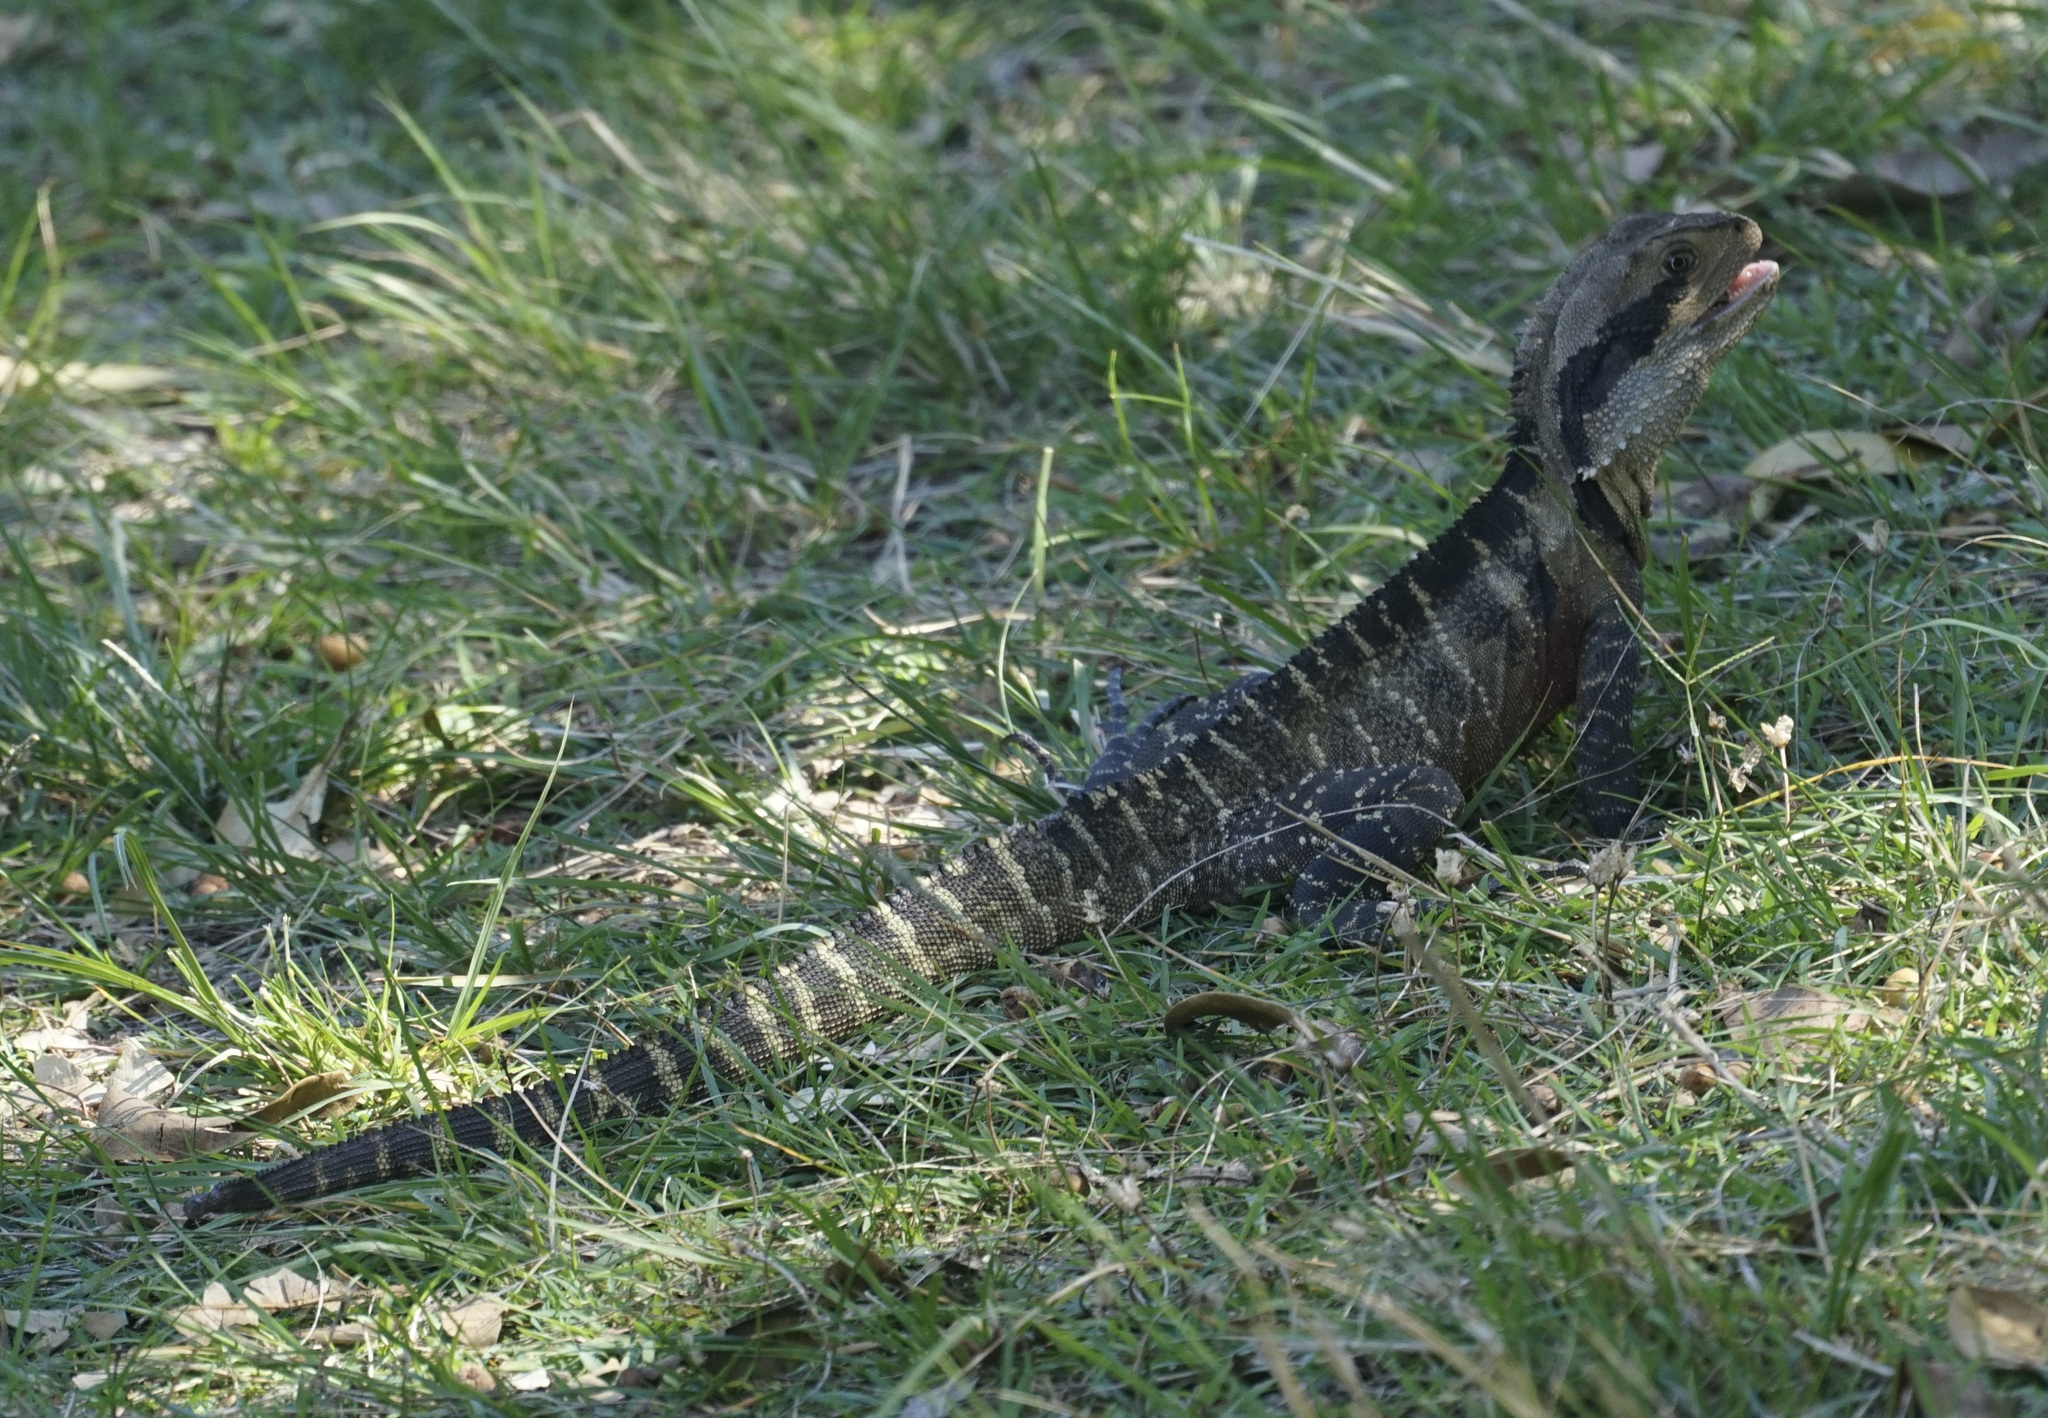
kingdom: Animalia
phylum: Chordata
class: Squamata
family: Agamidae
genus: Intellagama
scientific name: Intellagama lesueurii
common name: Eastern water dragon
